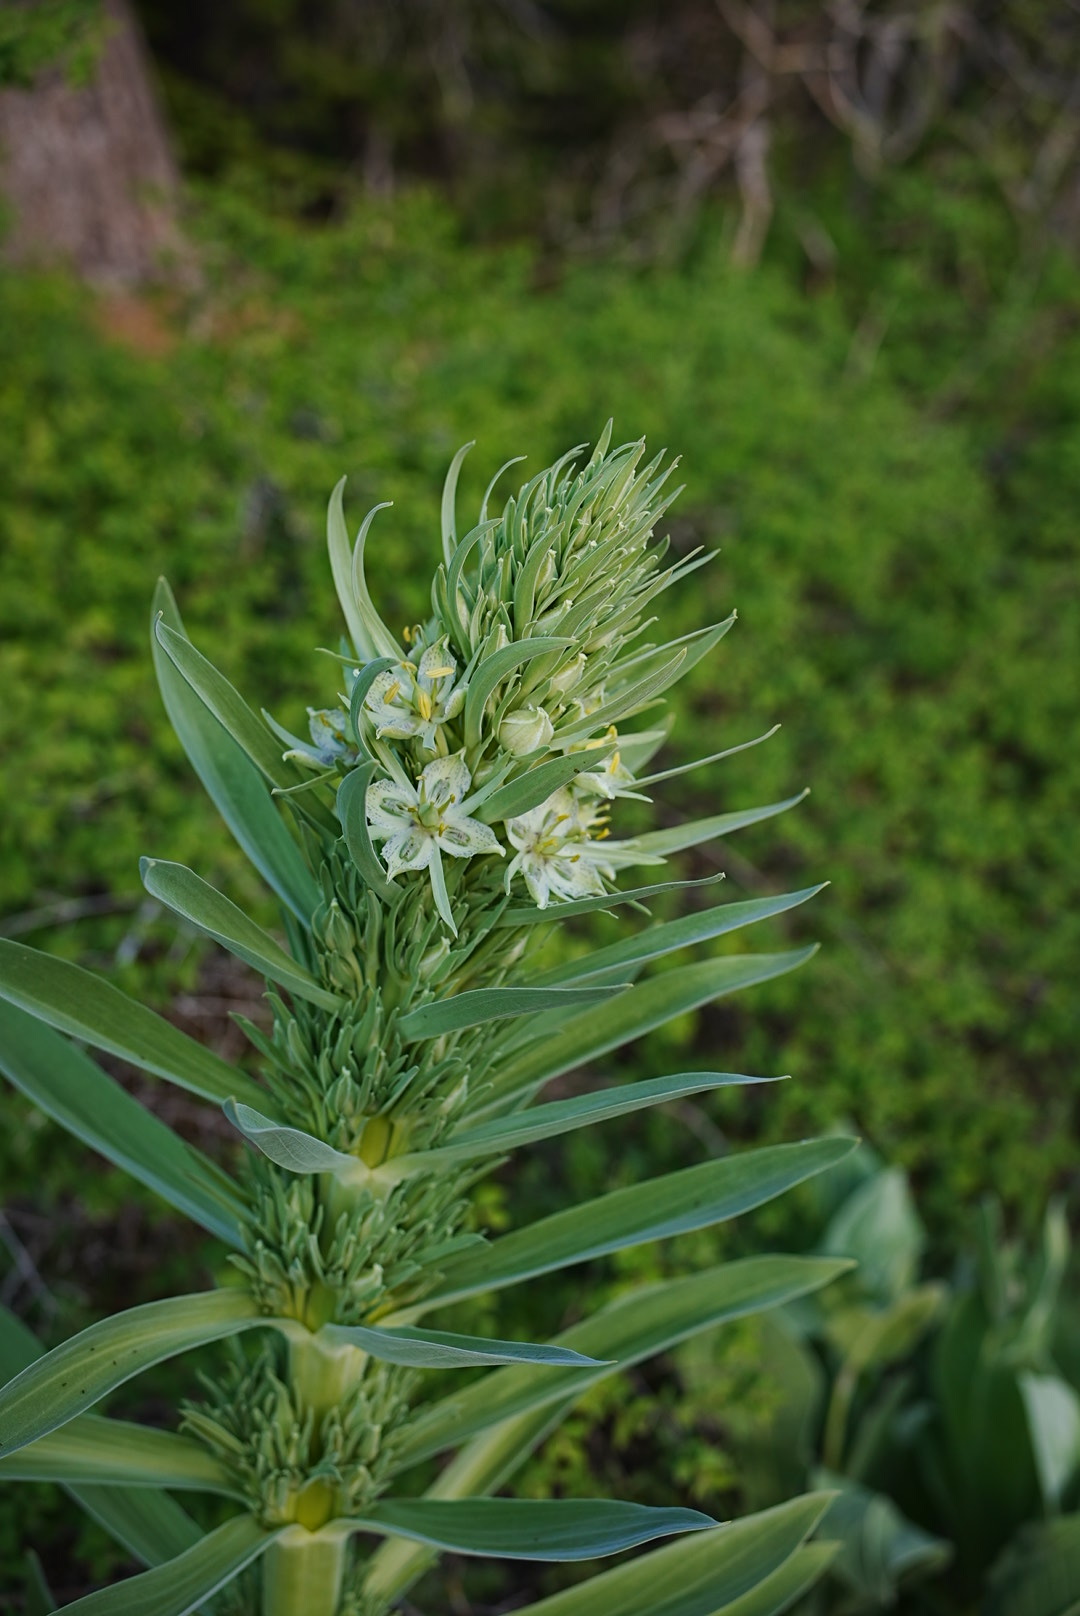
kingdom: Plantae
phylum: Tracheophyta
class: Magnoliopsida
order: Gentianales
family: Gentianaceae
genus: Frasera
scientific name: Frasera speciosa
